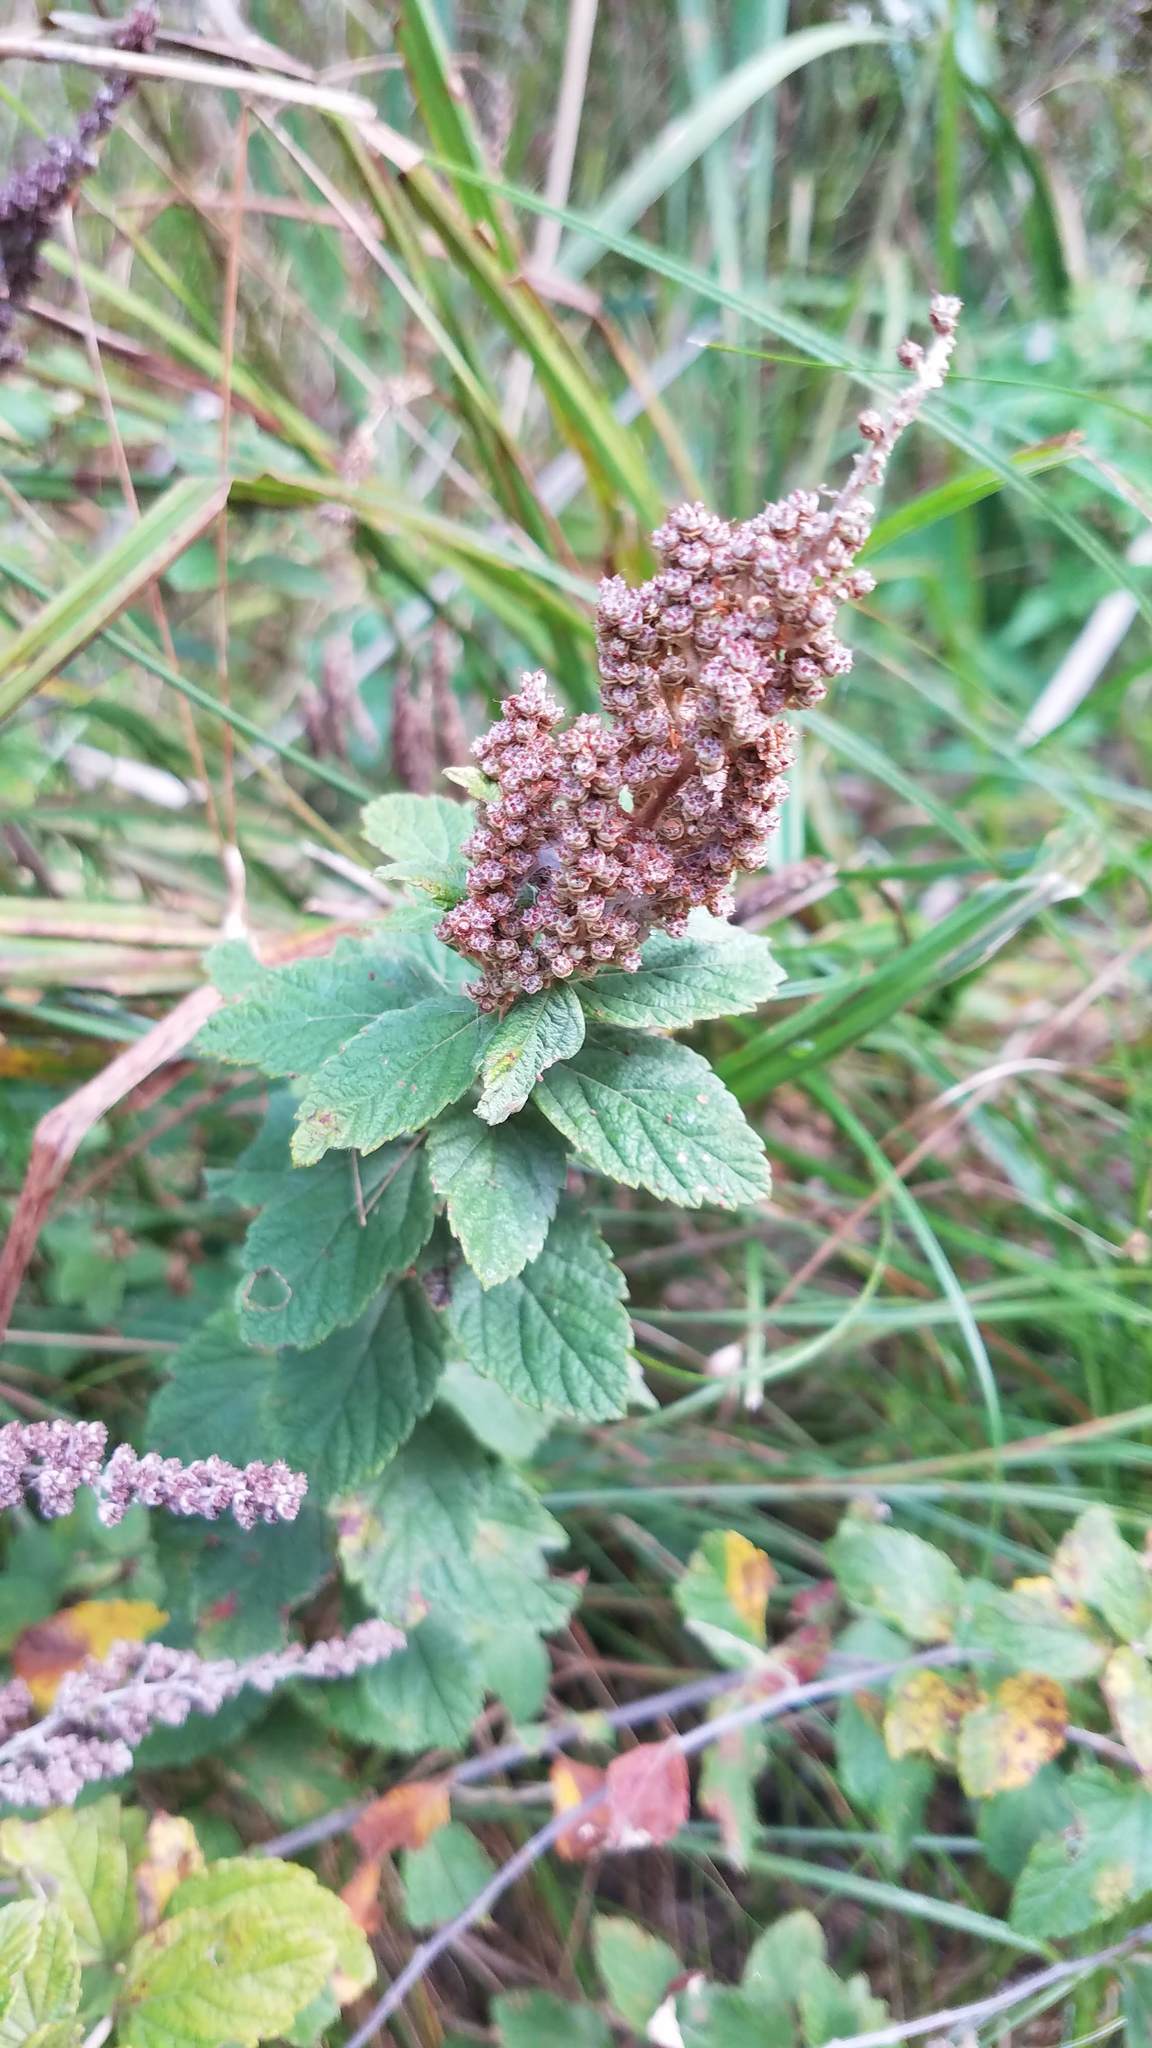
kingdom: Plantae
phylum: Tracheophyta
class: Magnoliopsida
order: Rosales
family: Rosaceae
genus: Spiraea
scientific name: Spiraea tomentosa
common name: Hardhack
